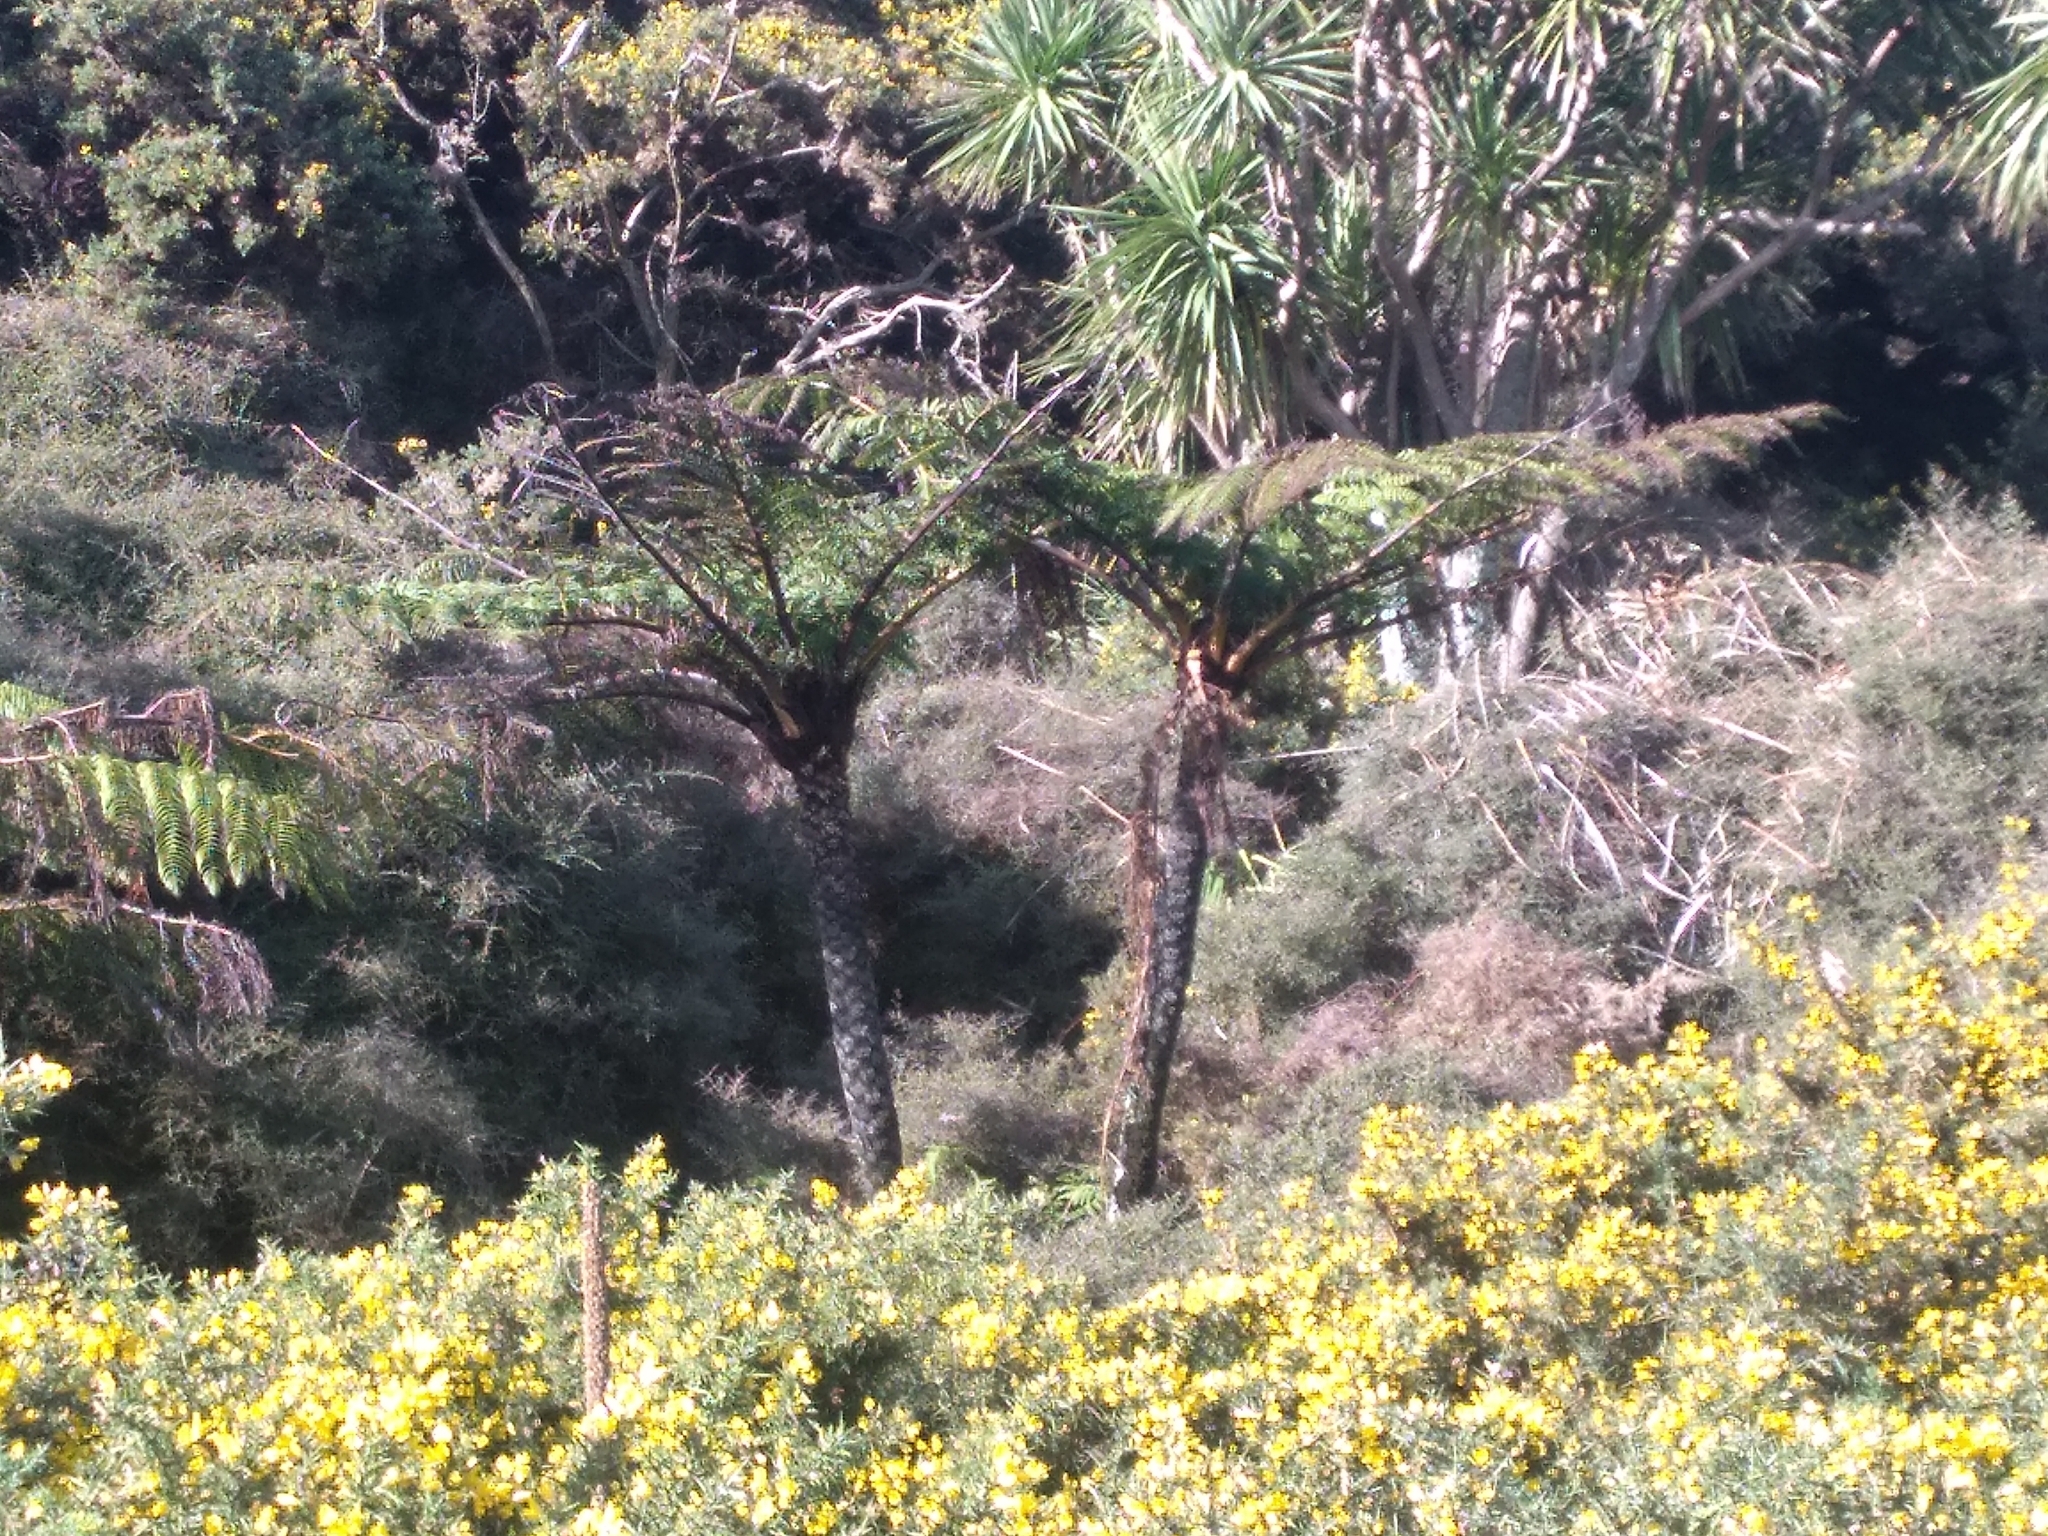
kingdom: Plantae
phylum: Tracheophyta
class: Polypodiopsida
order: Cyatheales
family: Cyatheaceae
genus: Sphaeropteris
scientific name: Sphaeropteris medullaris
